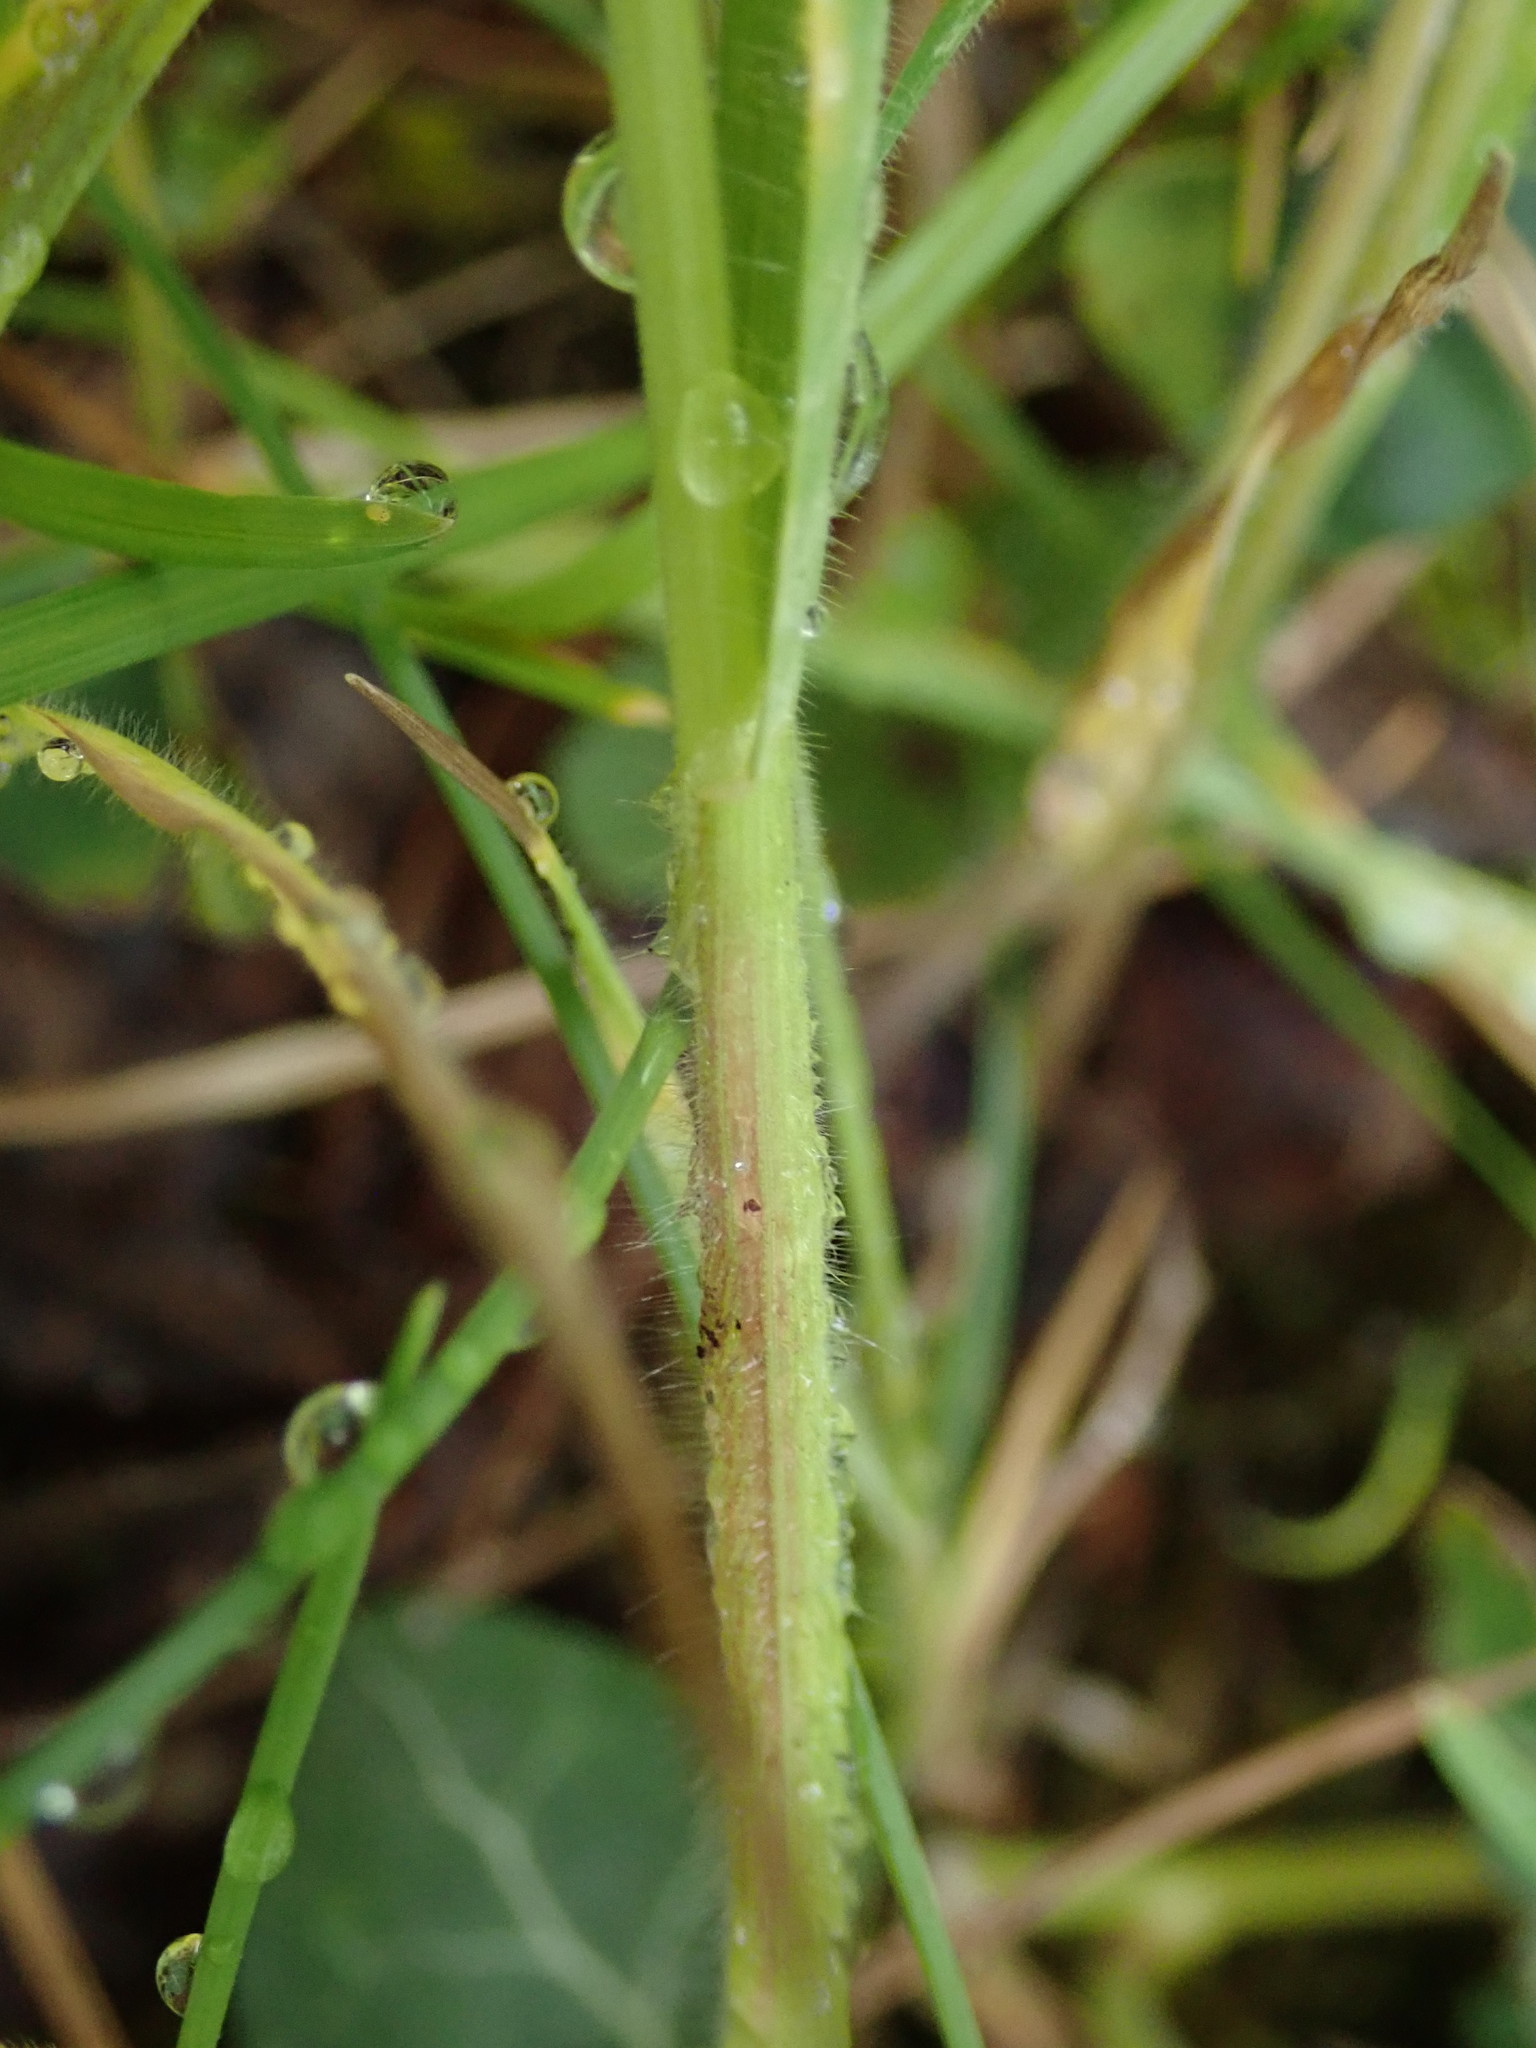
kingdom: Plantae
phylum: Tracheophyta
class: Liliopsida
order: Poales
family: Poaceae
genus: Bromus
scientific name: Bromus hordeaceus
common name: Soft brome
